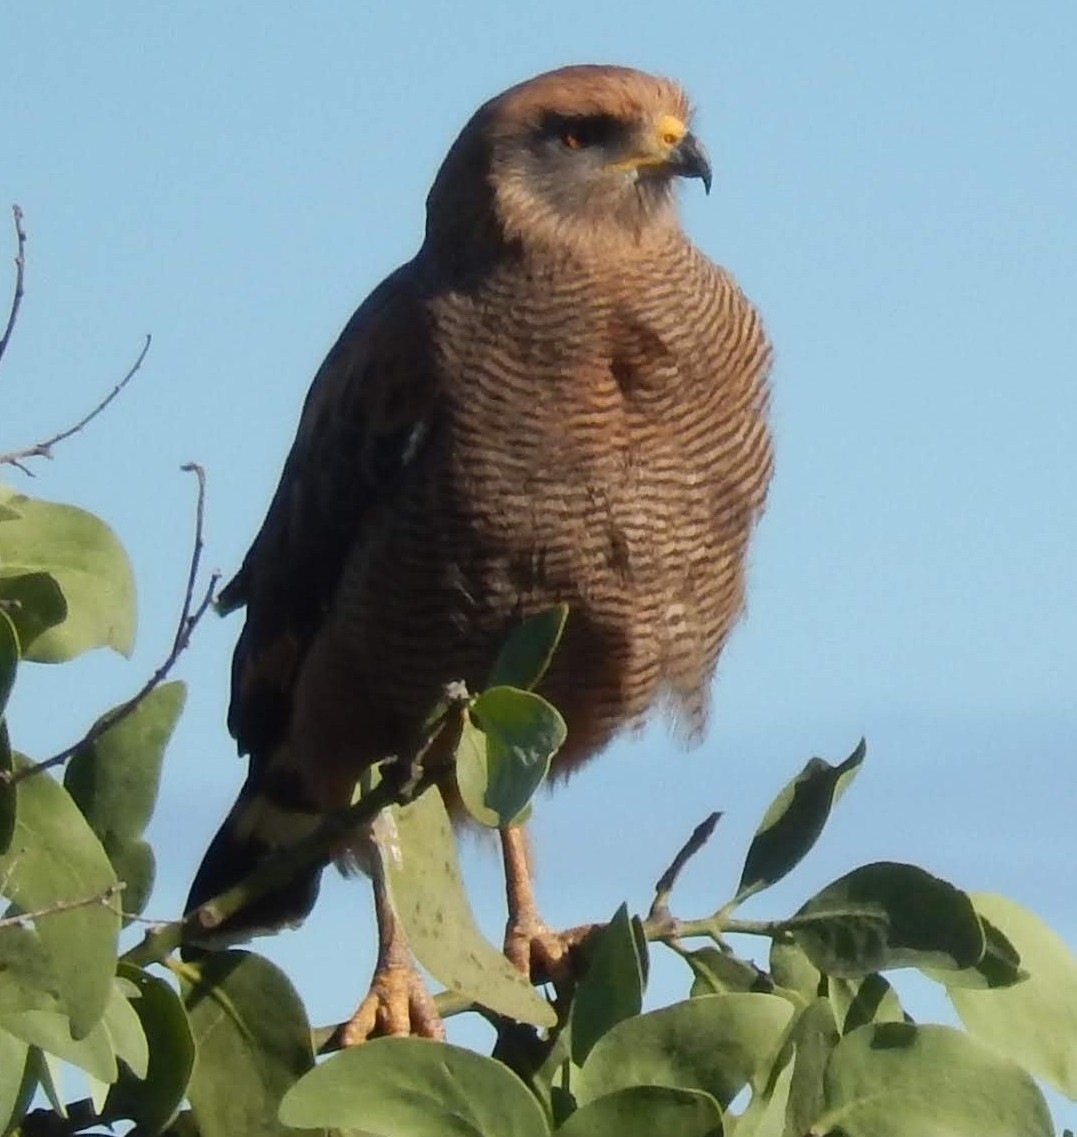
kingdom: Animalia
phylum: Chordata
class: Aves
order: Accipitriformes
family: Accipitridae
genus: Buteogallus
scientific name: Buteogallus meridionalis
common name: Savanna hawk
